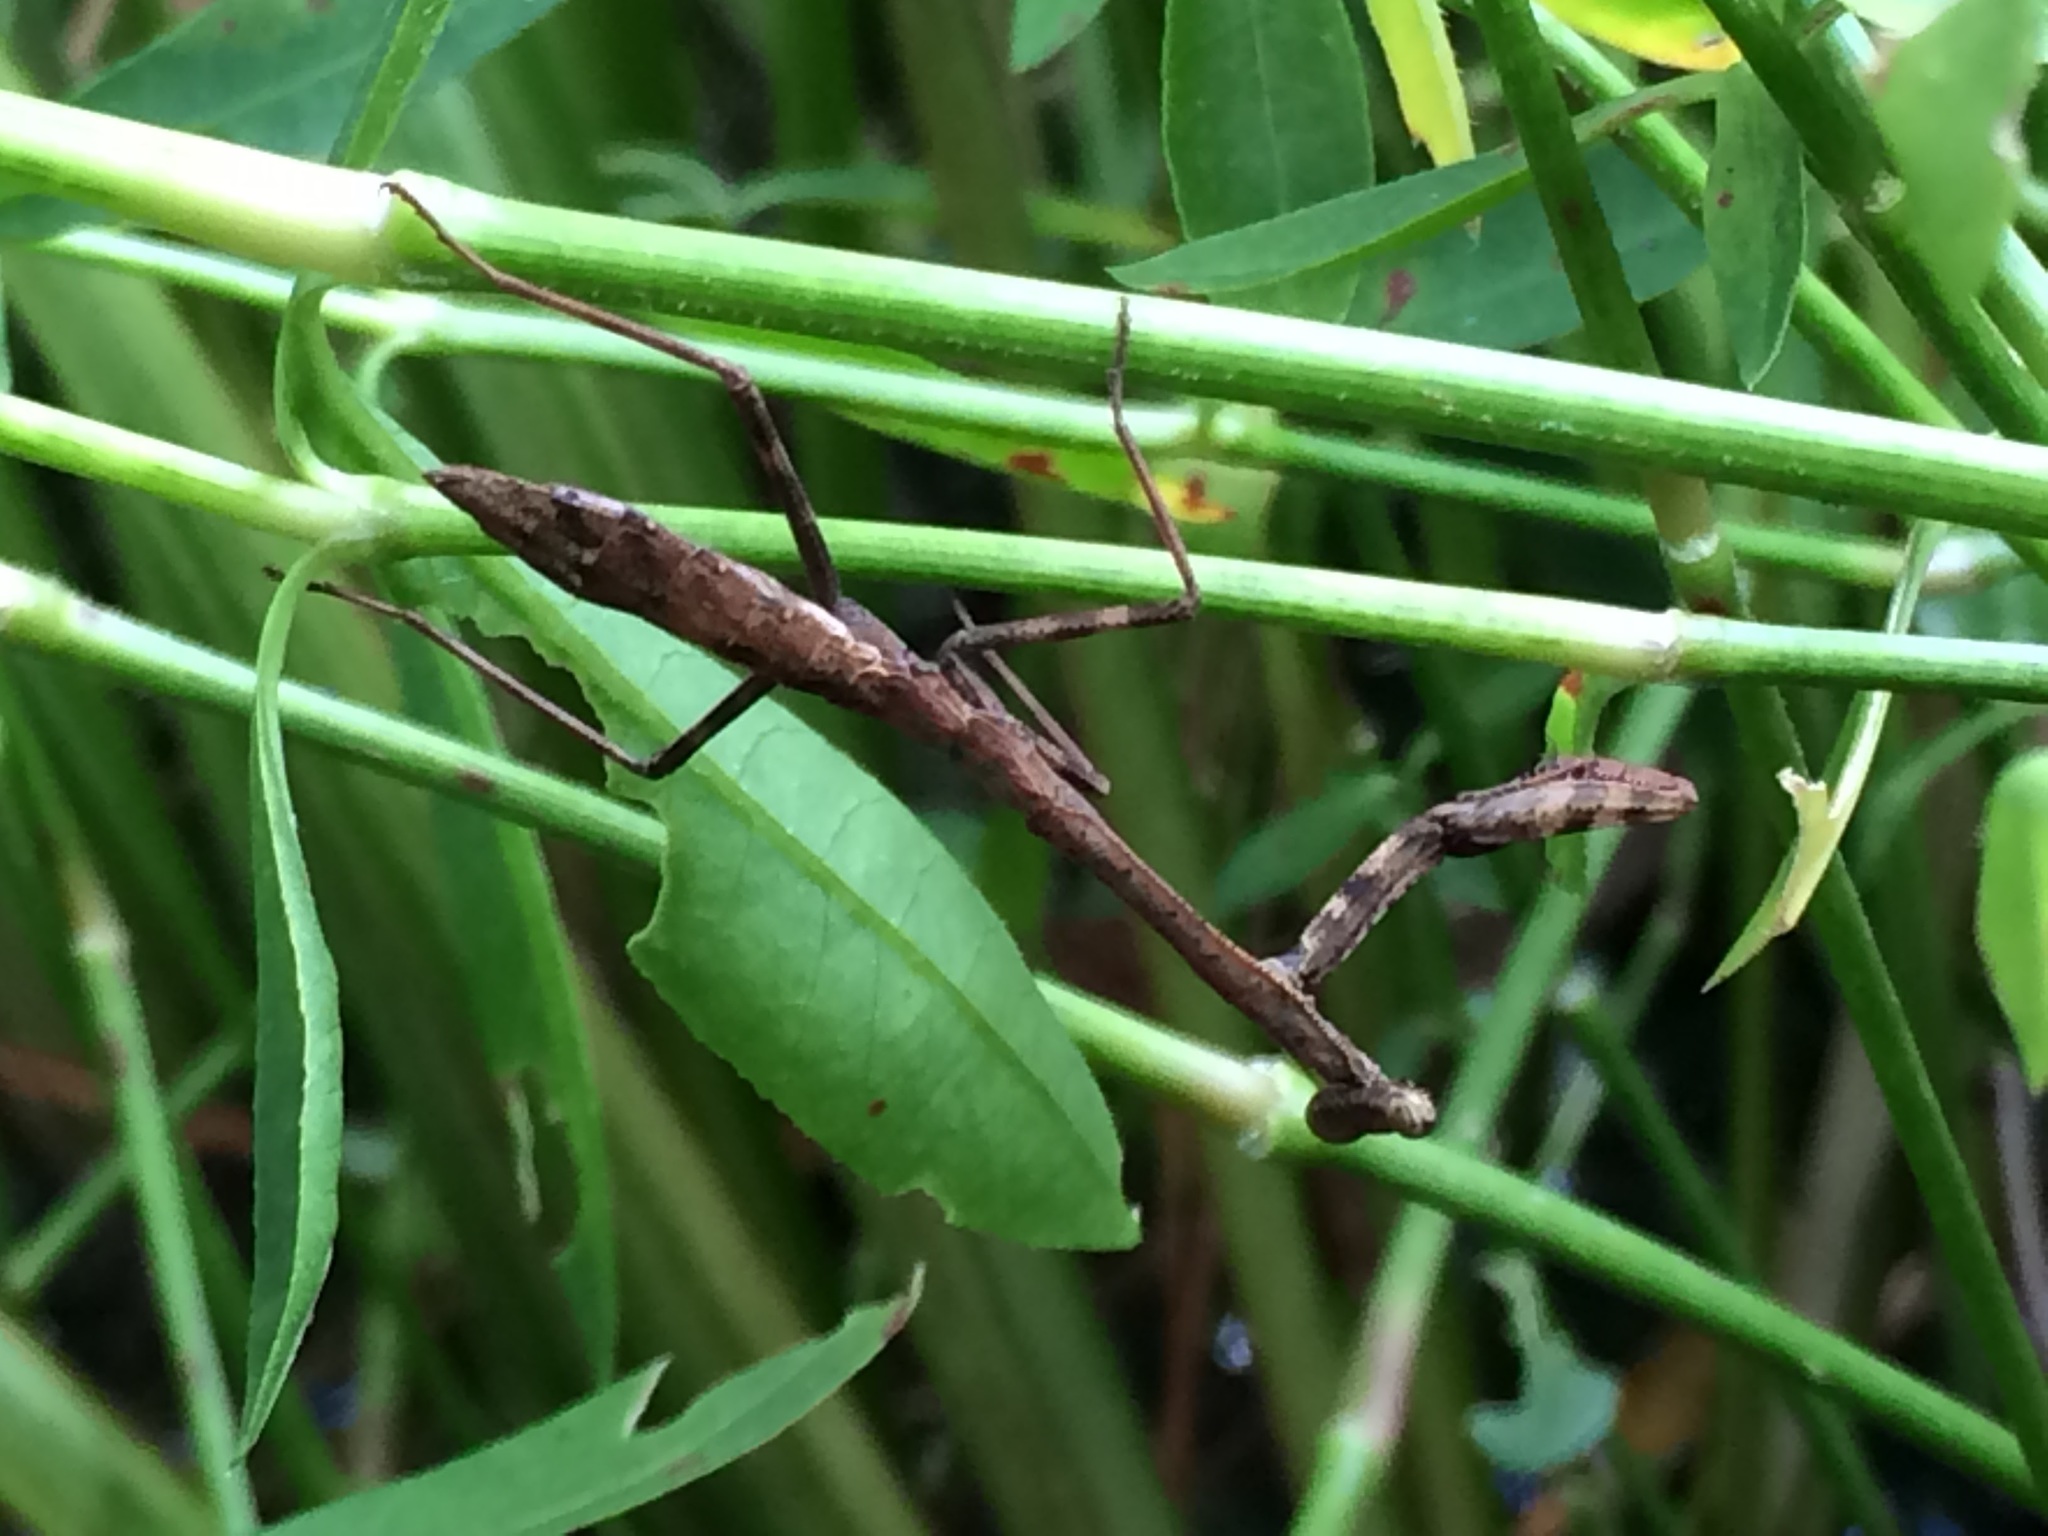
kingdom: Animalia
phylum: Arthropoda
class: Insecta
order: Mantodea
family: Mantidae
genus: Stagmomantis
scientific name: Stagmomantis carolina
